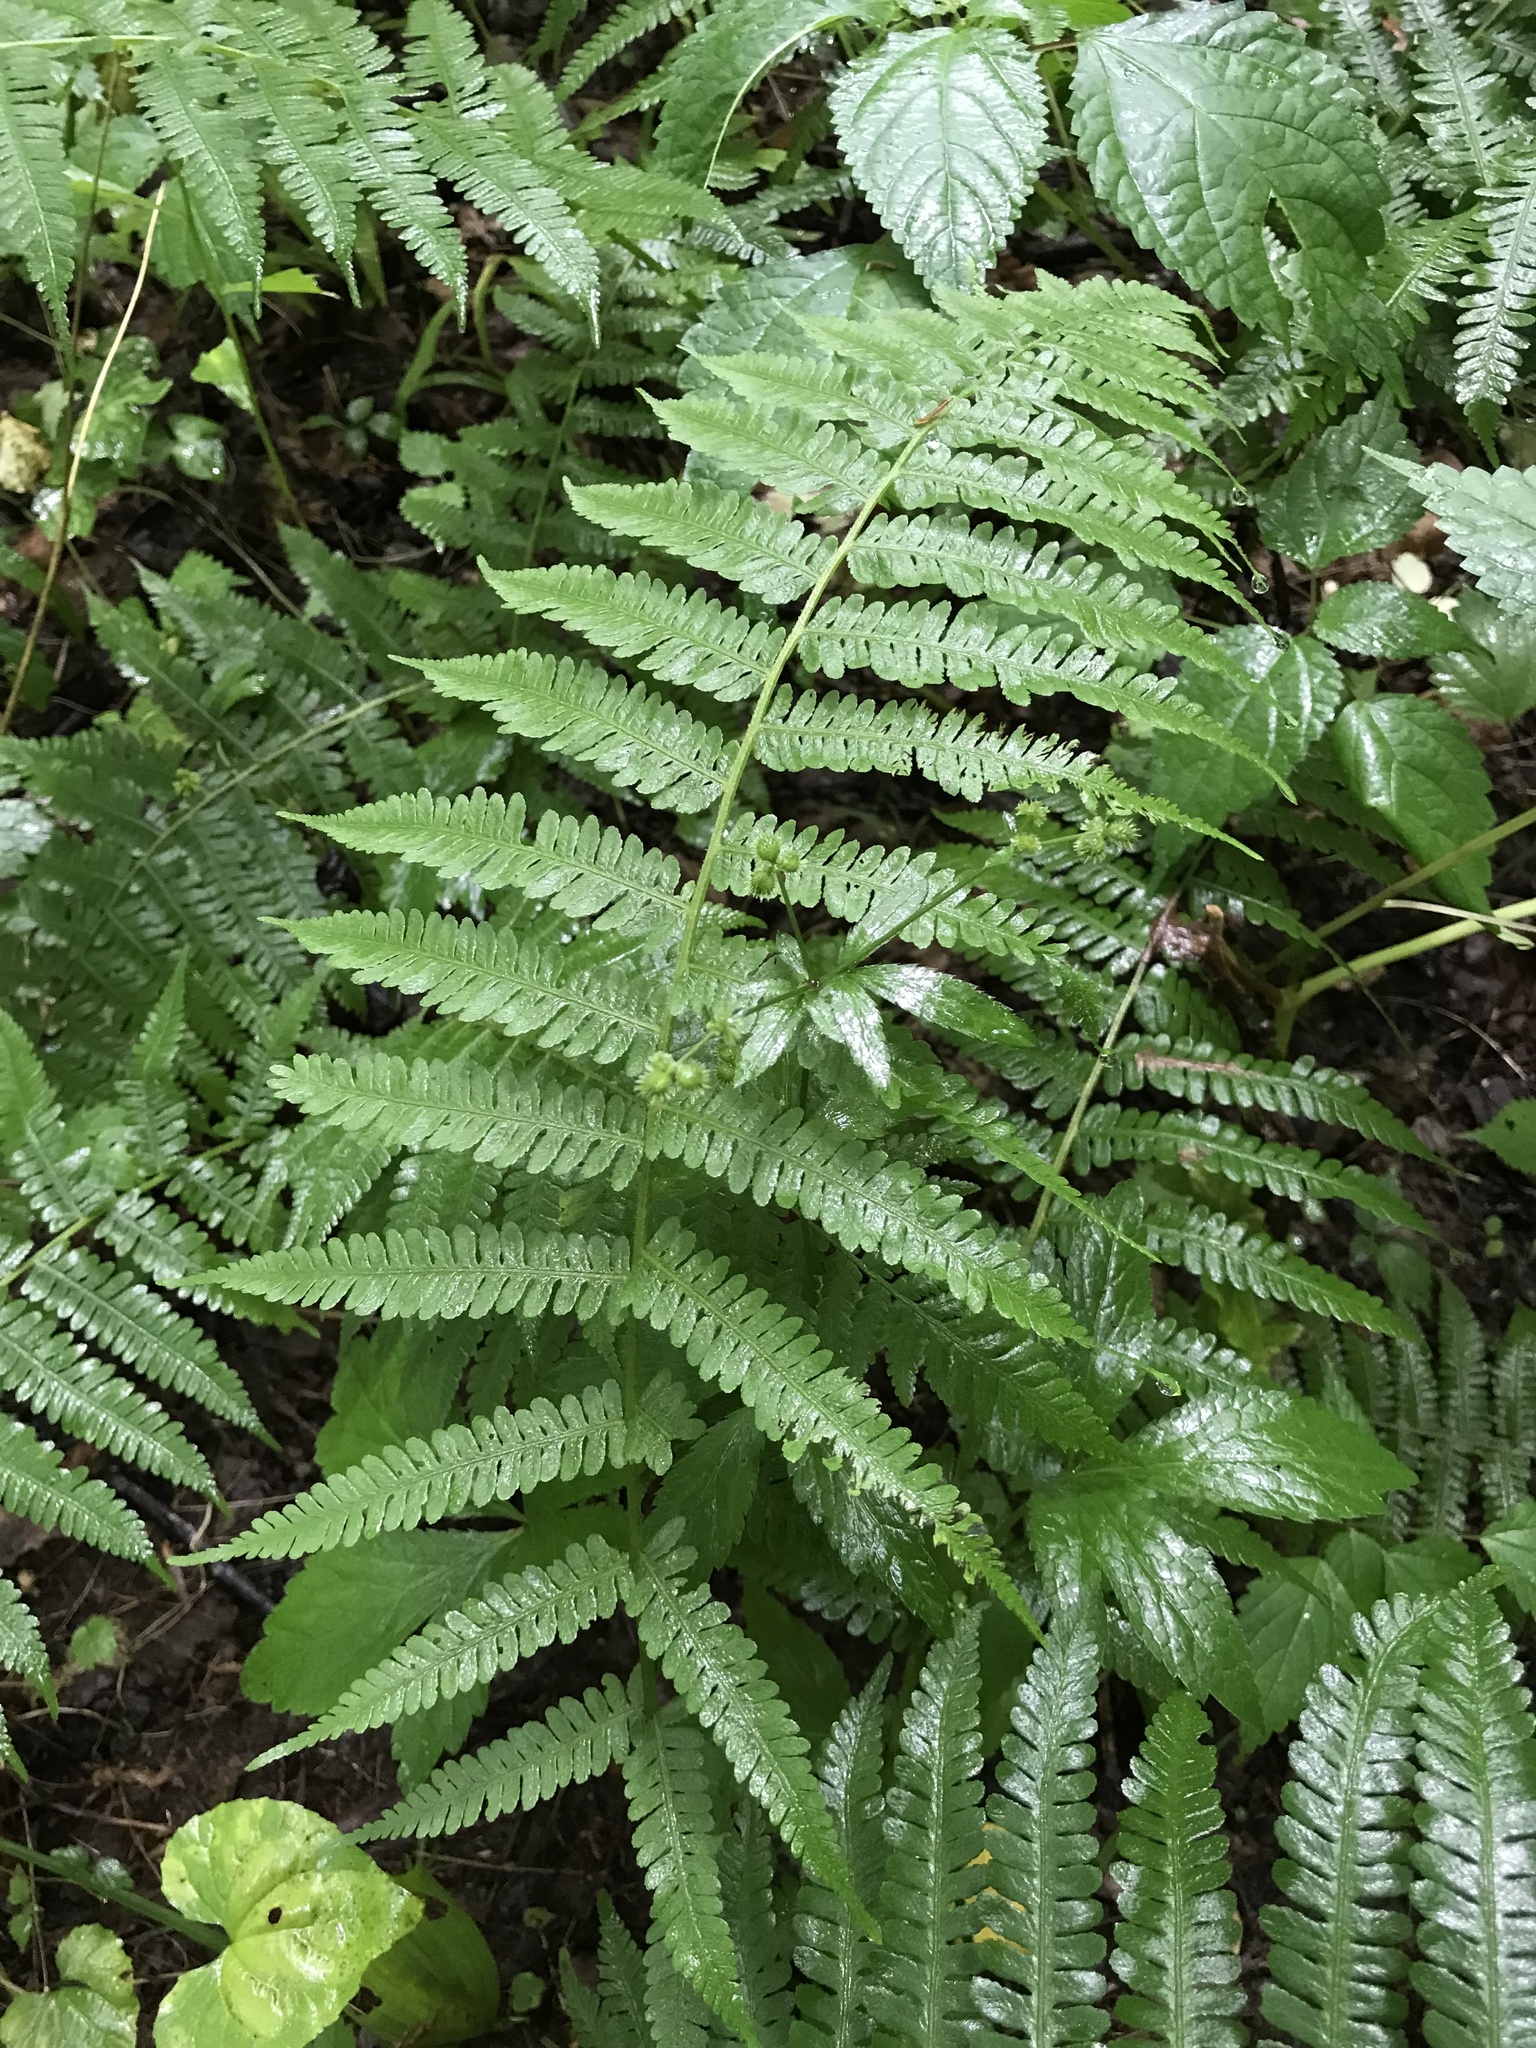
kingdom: Plantae
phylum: Tracheophyta
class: Polypodiopsida
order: Polypodiales
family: Athyriaceae
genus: Deparia
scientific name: Deparia acrostichoides
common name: Silver false spleenwort
